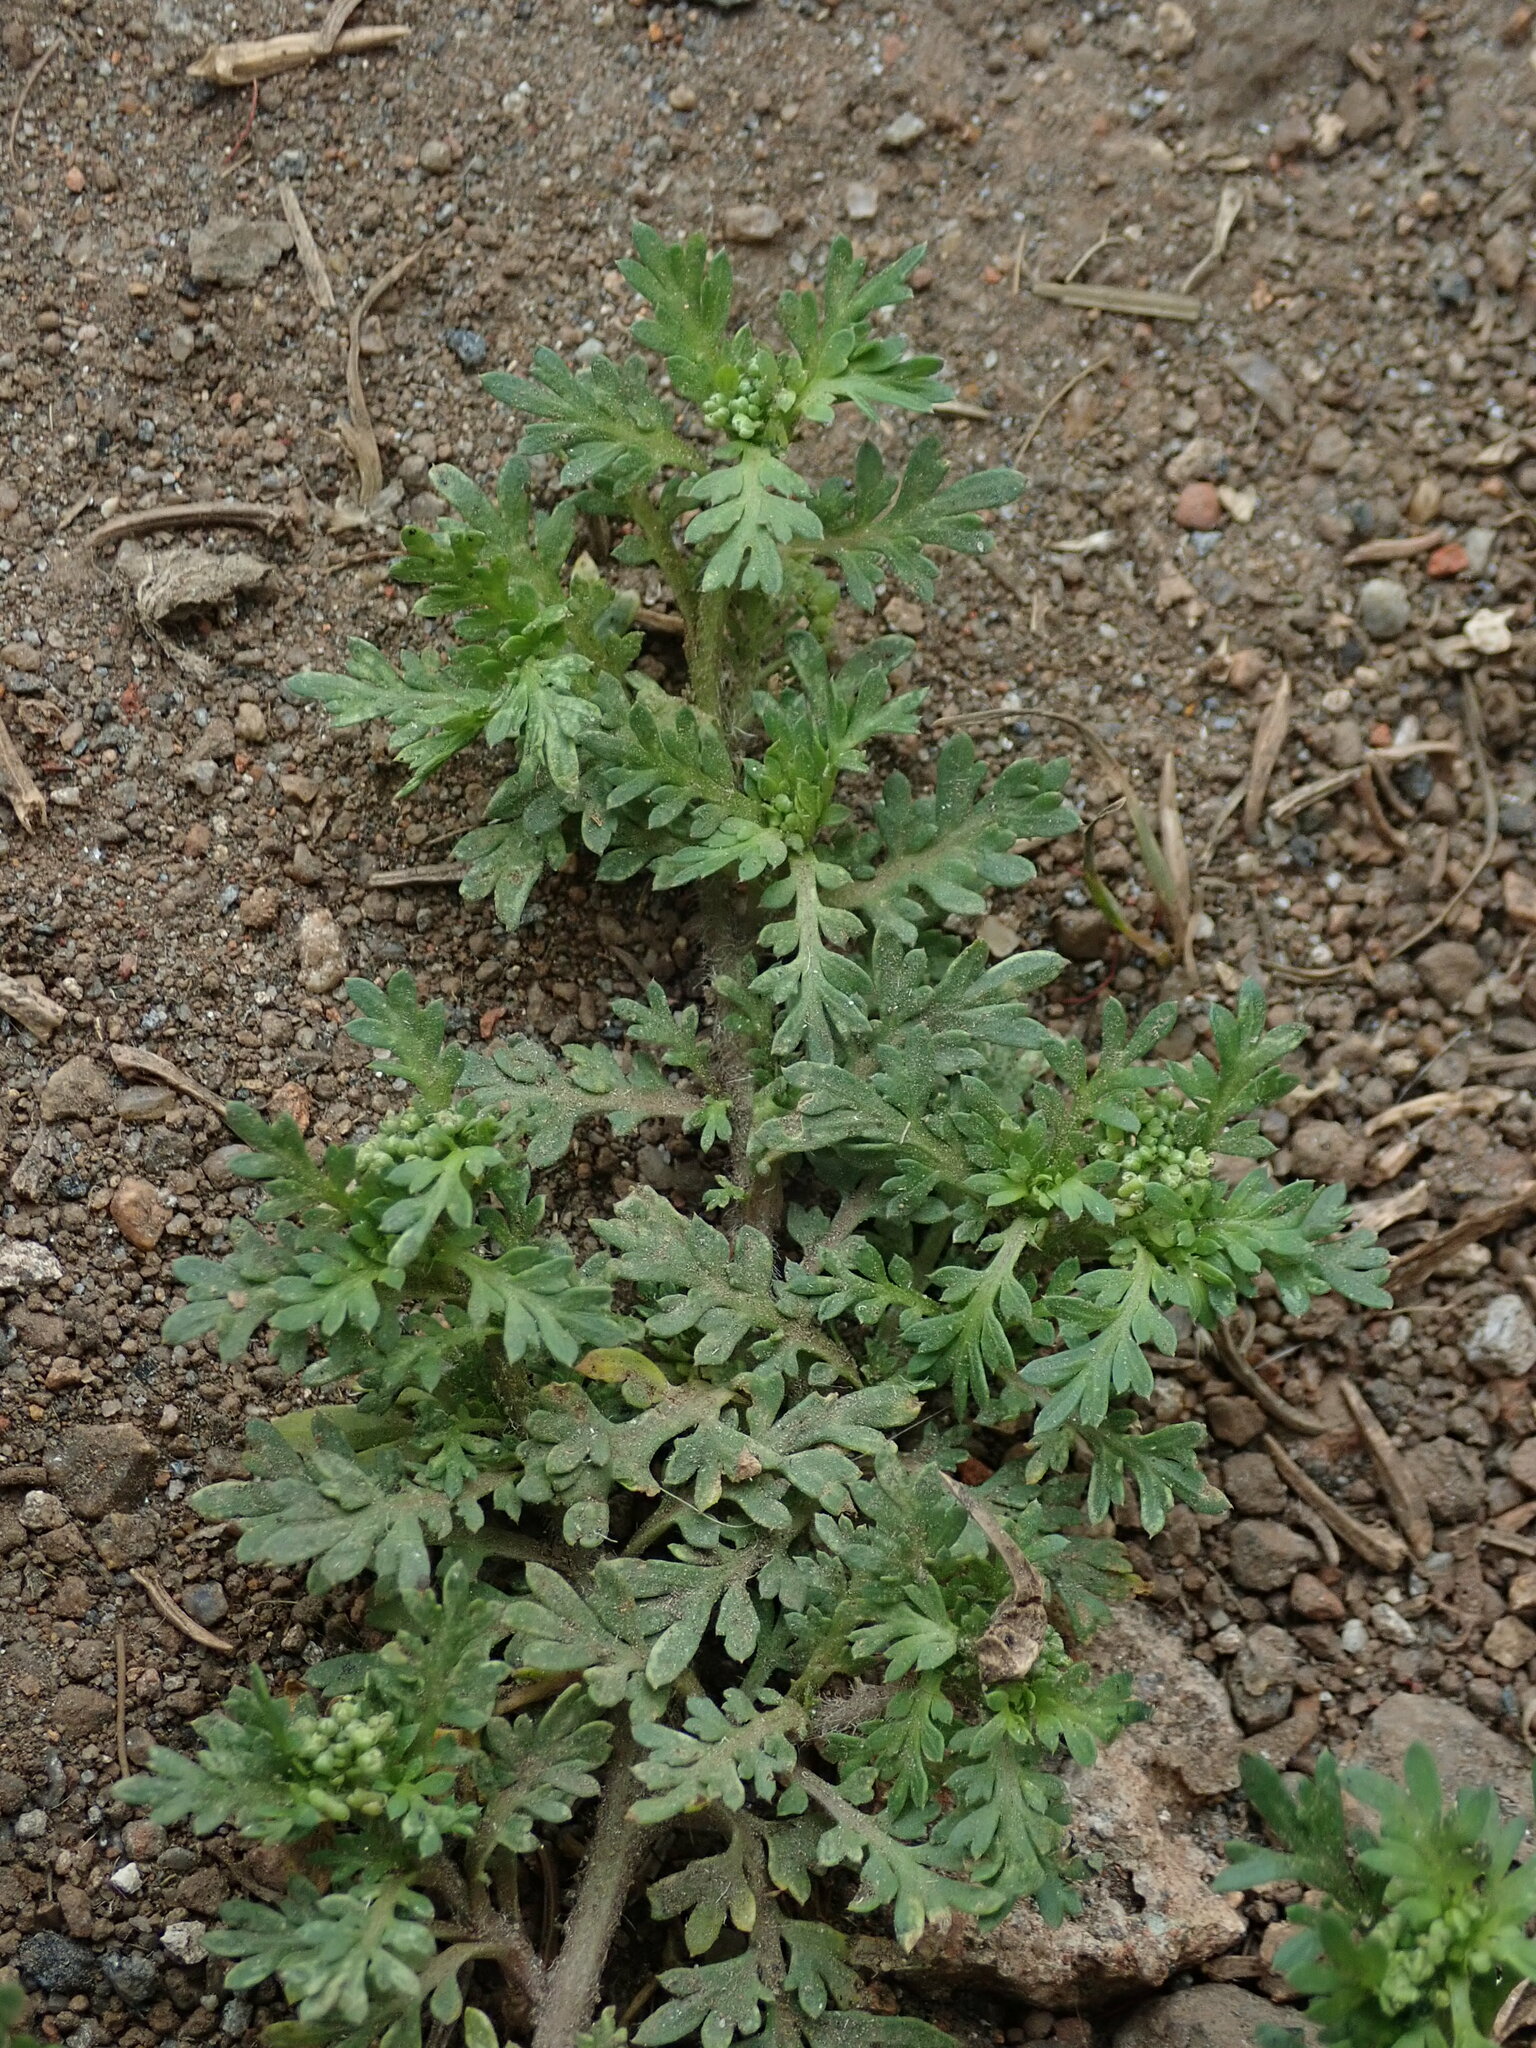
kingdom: Plantae
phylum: Tracheophyta
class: Magnoliopsida
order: Brassicales
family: Brassicaceae
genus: Lepidium
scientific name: Lepidium didymum
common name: Lesser swinecress
